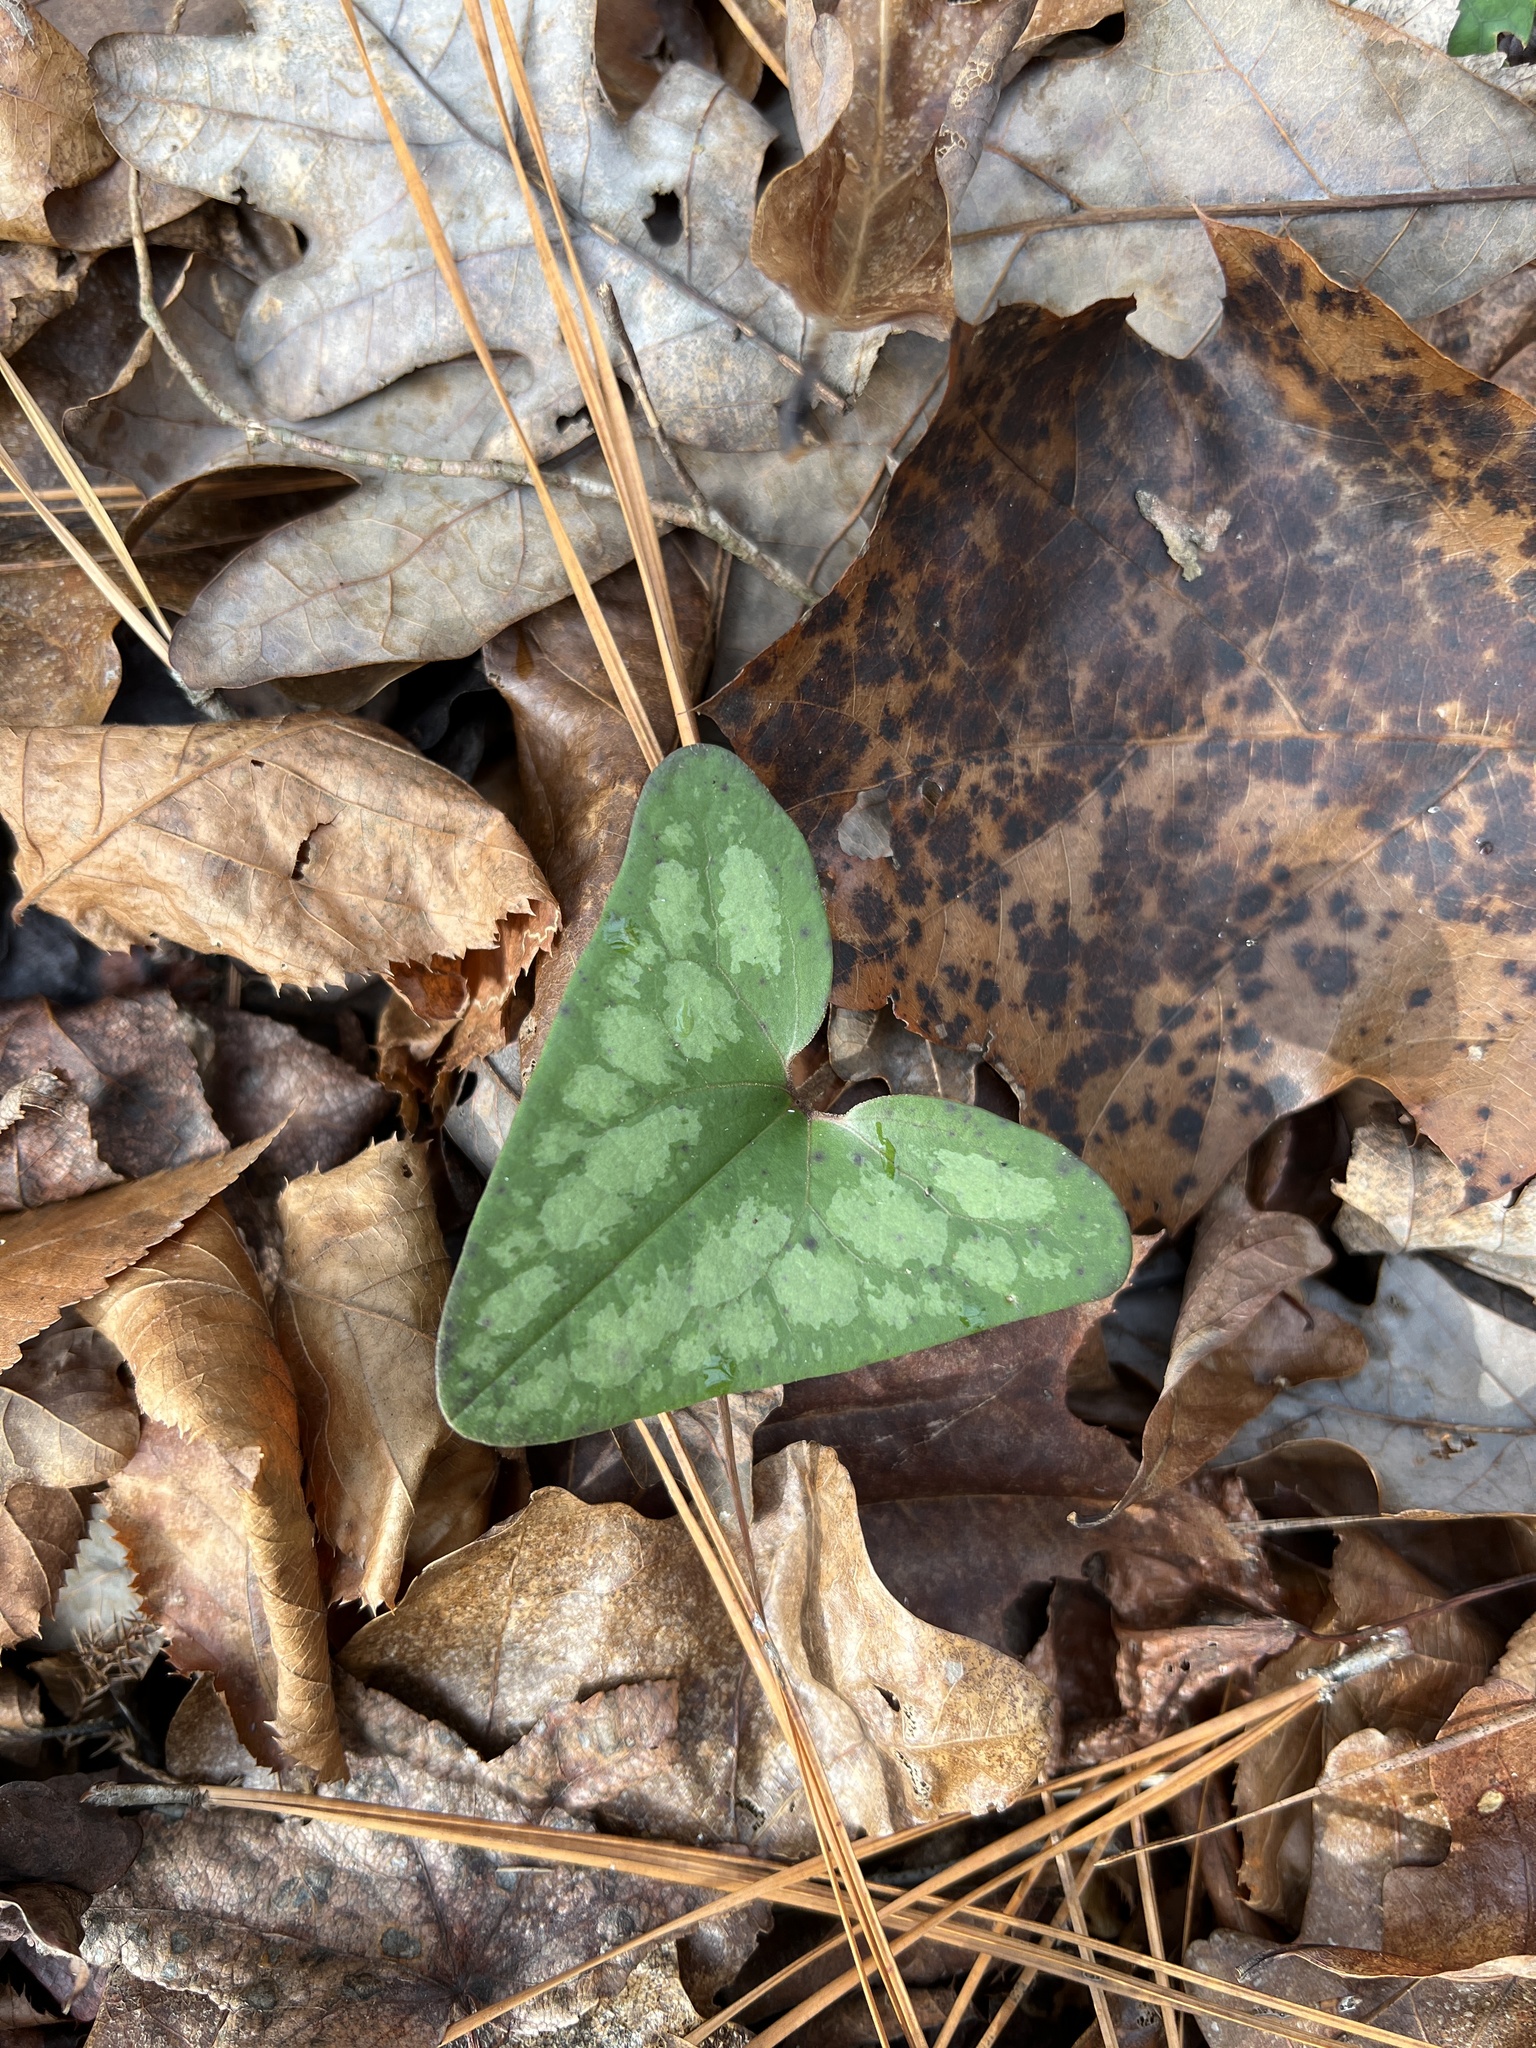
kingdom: Plantae
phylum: Tracheophyta
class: Magnoliopsida
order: Piperales
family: Aristolochiaceae
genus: Hexastylis
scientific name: Hexastylis arifolia
